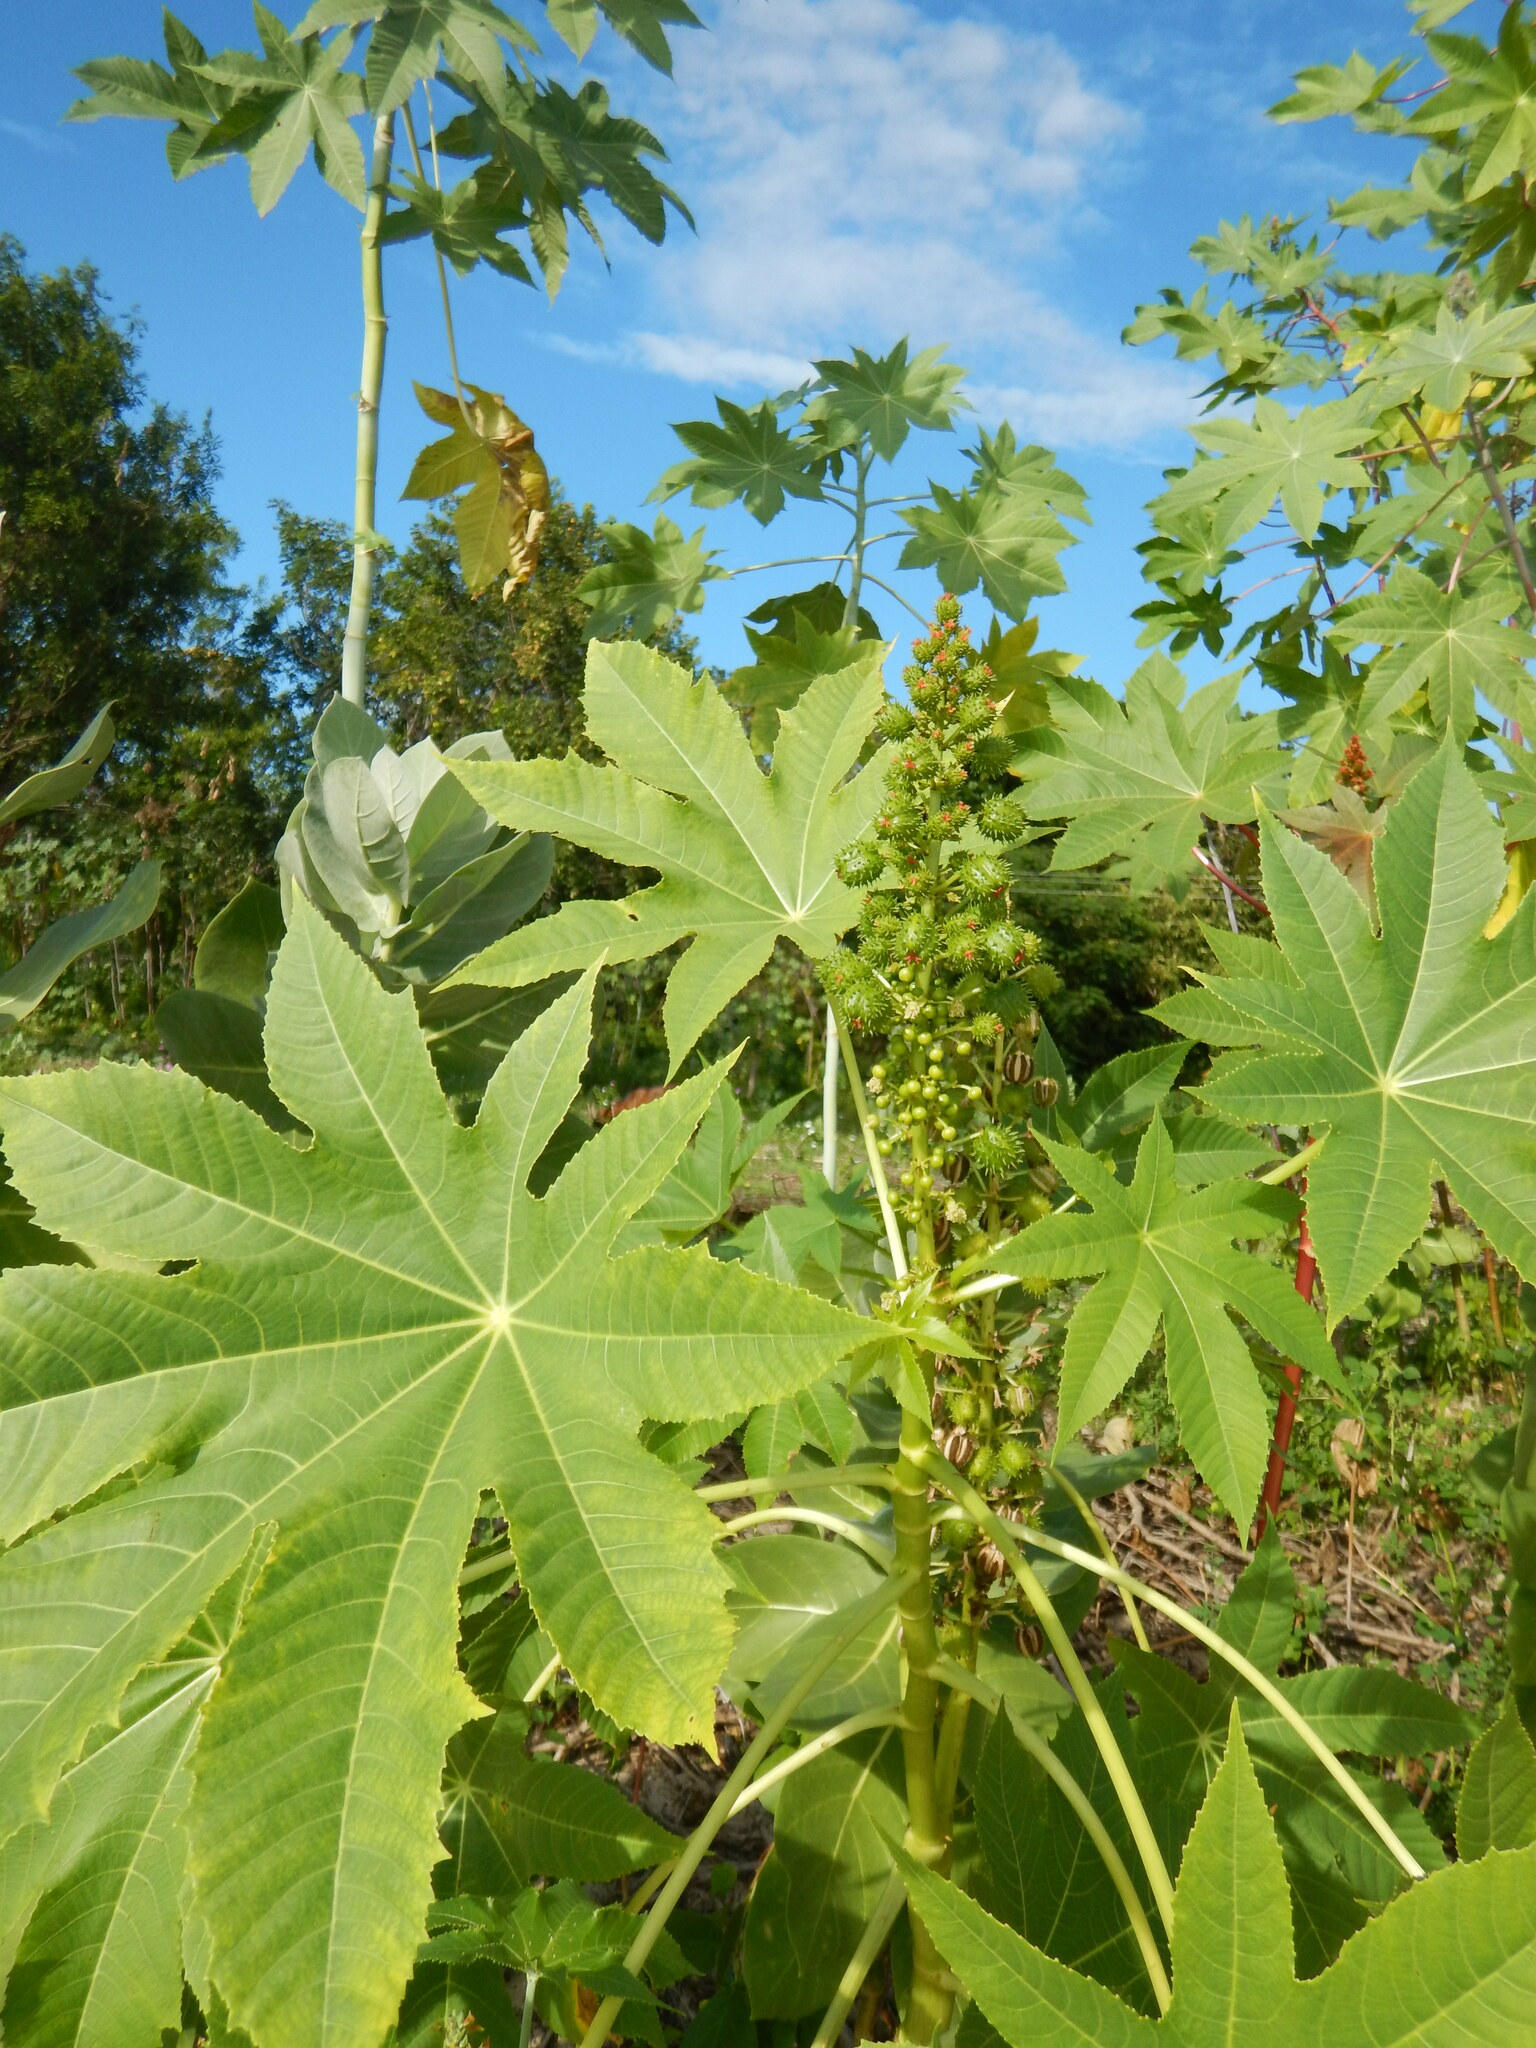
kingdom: Plantae
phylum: Tracheophyta
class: Magnoliopsida
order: Malpighiales
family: Euphorbiaceae
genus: Ricinus
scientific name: Ricinus communis
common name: Castor-oil-plant
